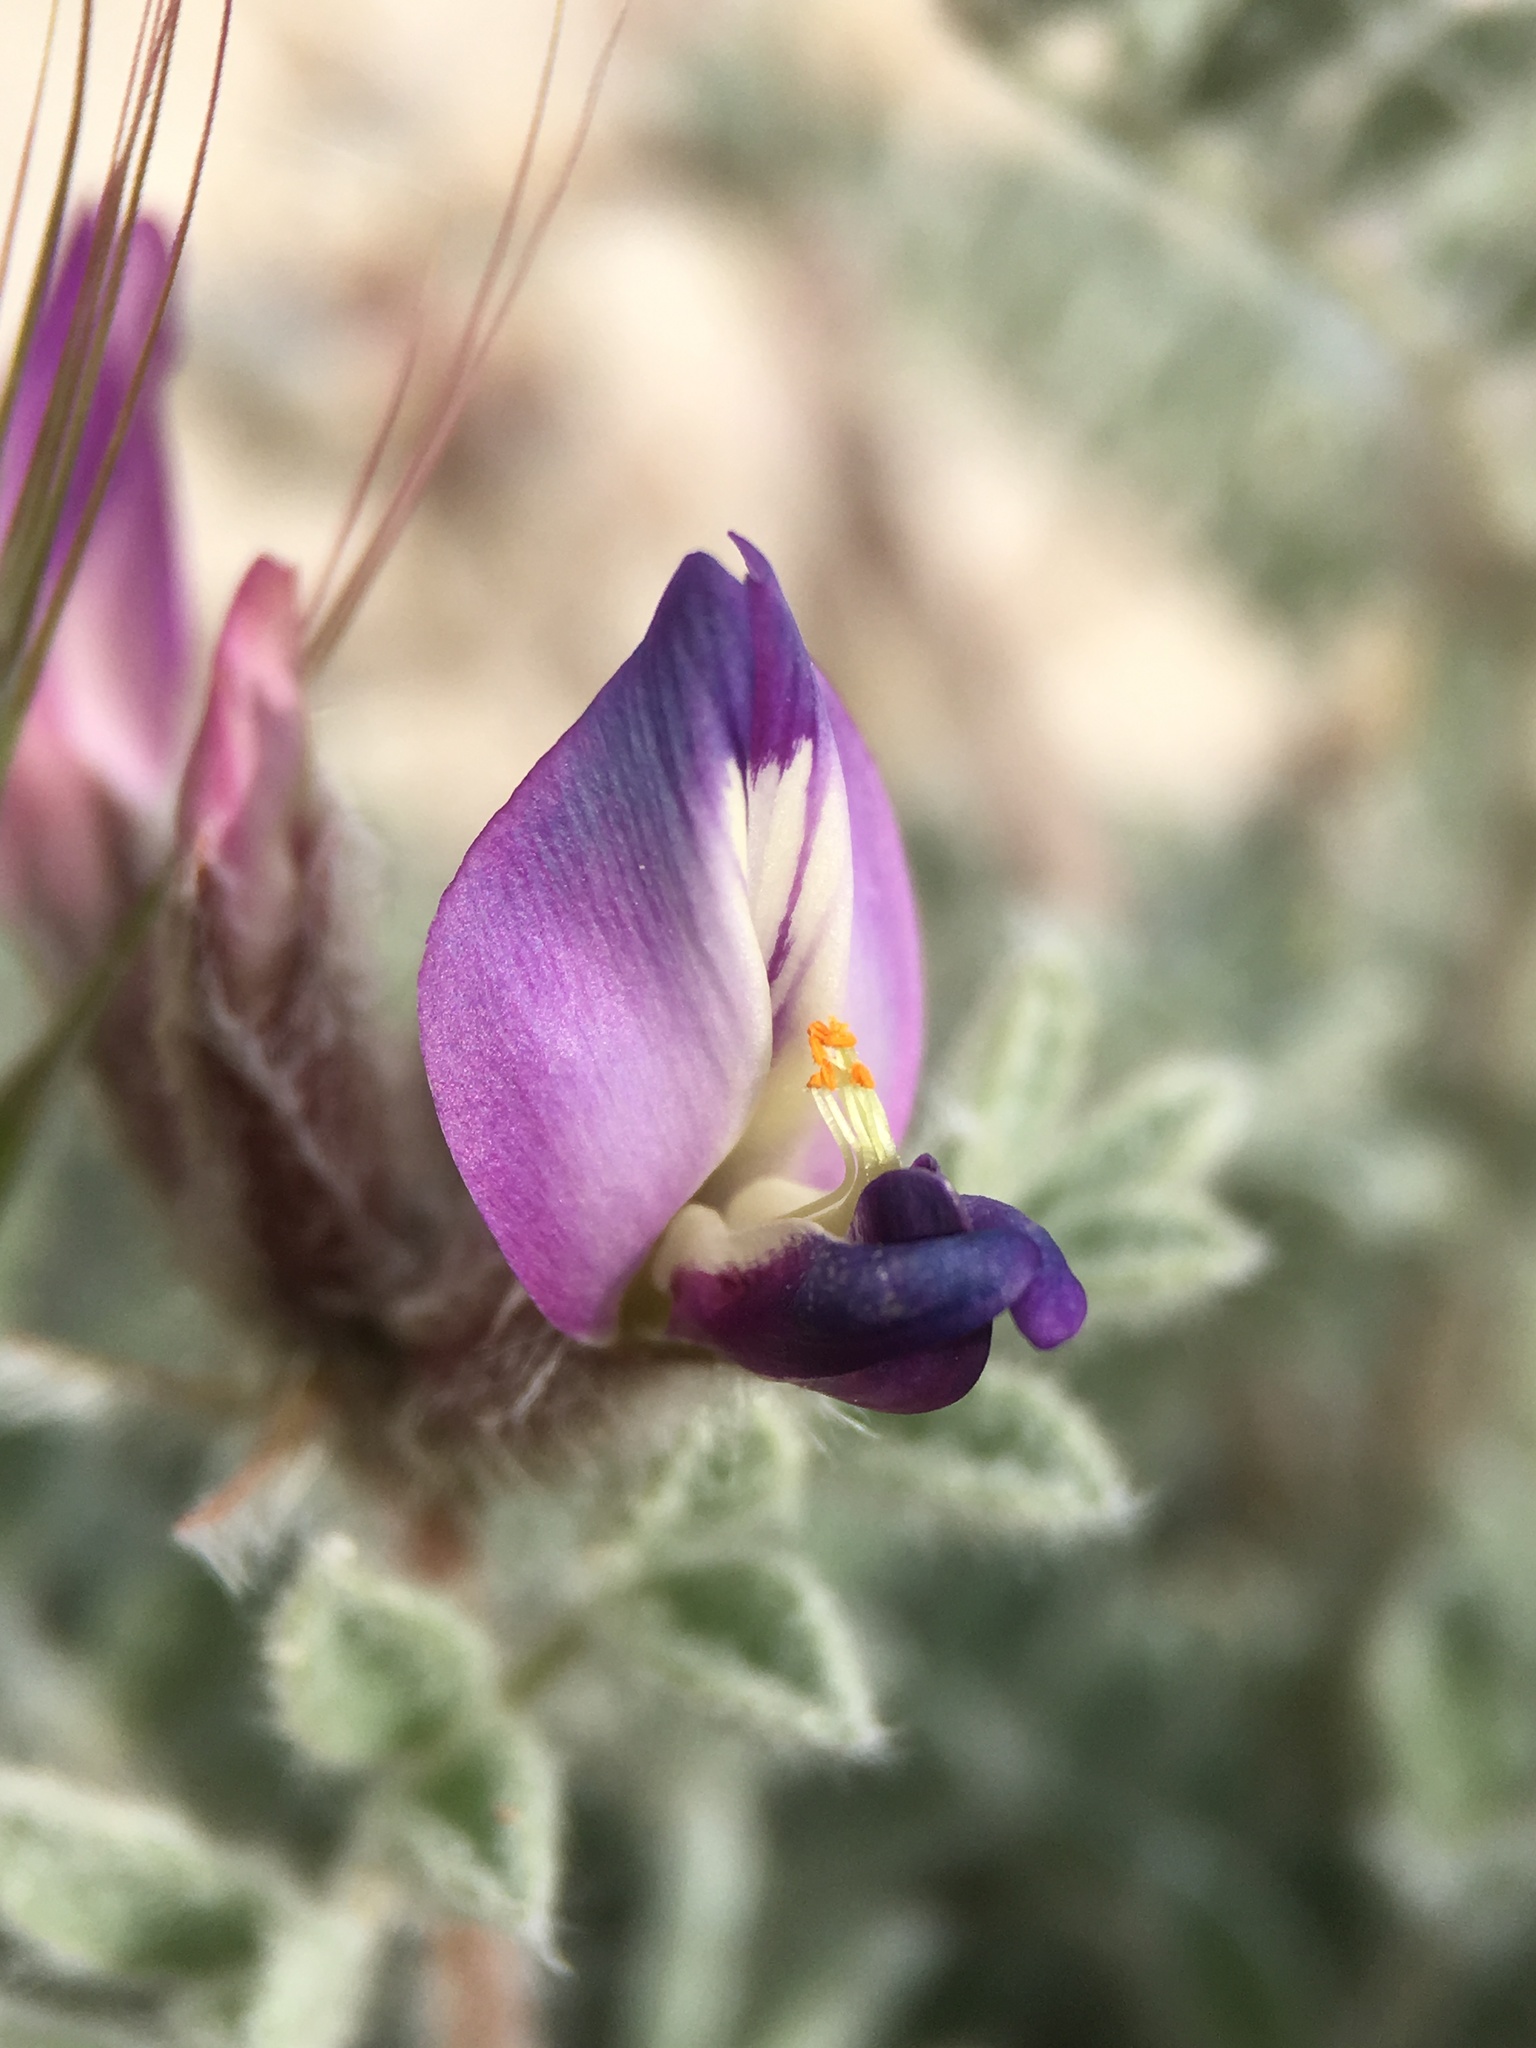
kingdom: Plantae
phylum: Tracheophyta
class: Magnoliopsida
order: Fabales
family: Fabaceae
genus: Astragalus
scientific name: Astragalus purshii
